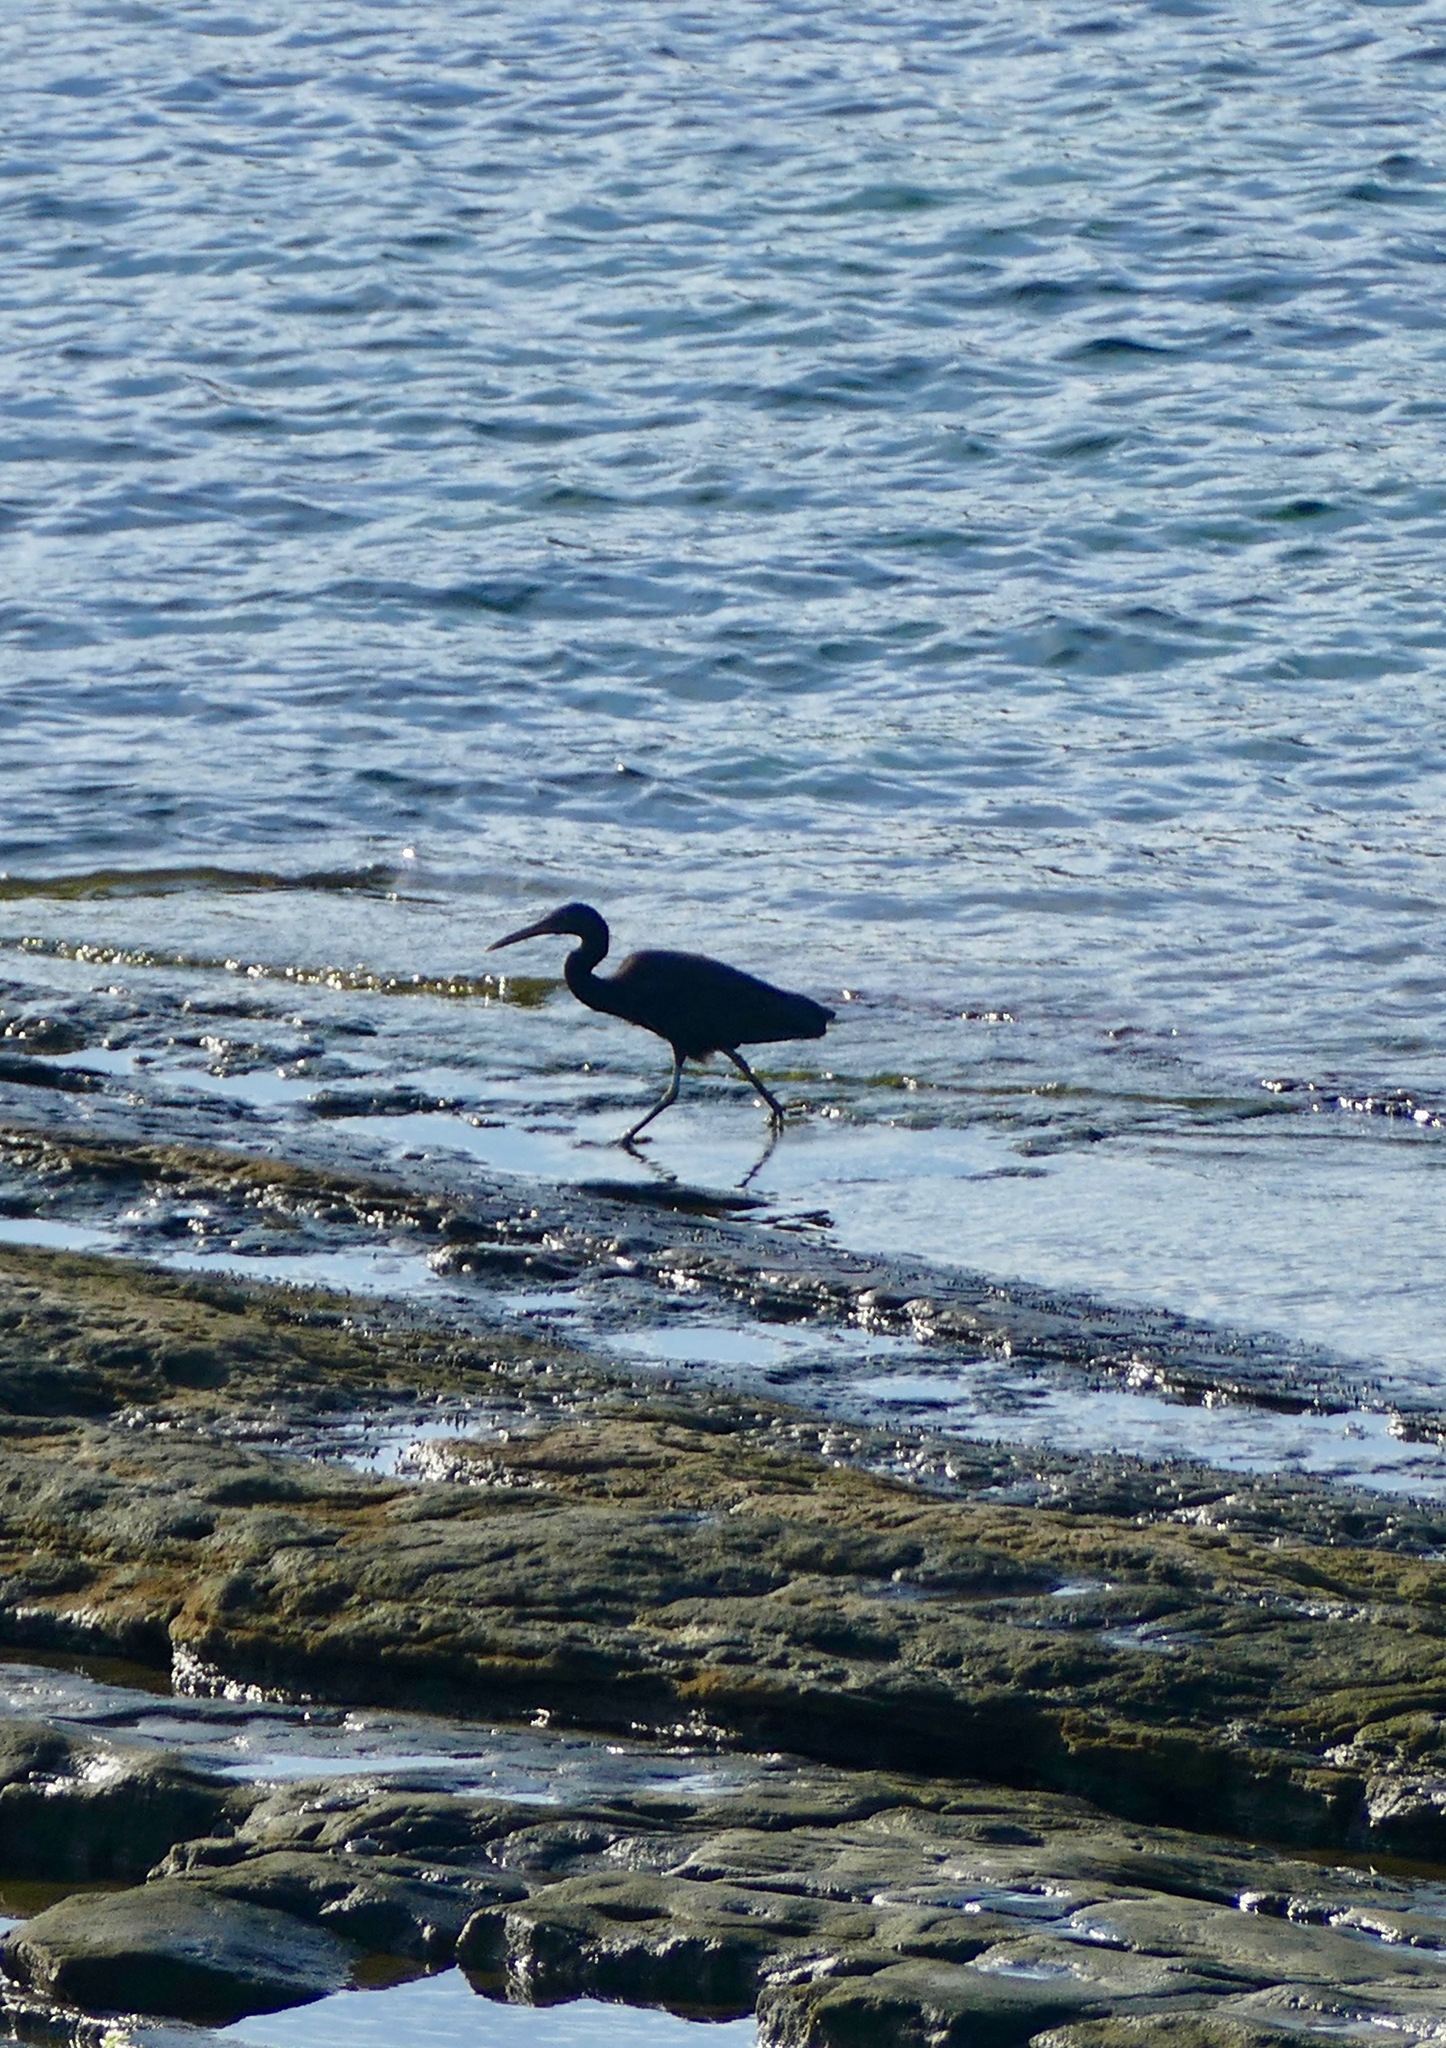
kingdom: Animalia
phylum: Chordata
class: Aves
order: Pelecaniformes
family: Ardeidae
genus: Egretta
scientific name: Egretta sacra
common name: Pacific reef heron
